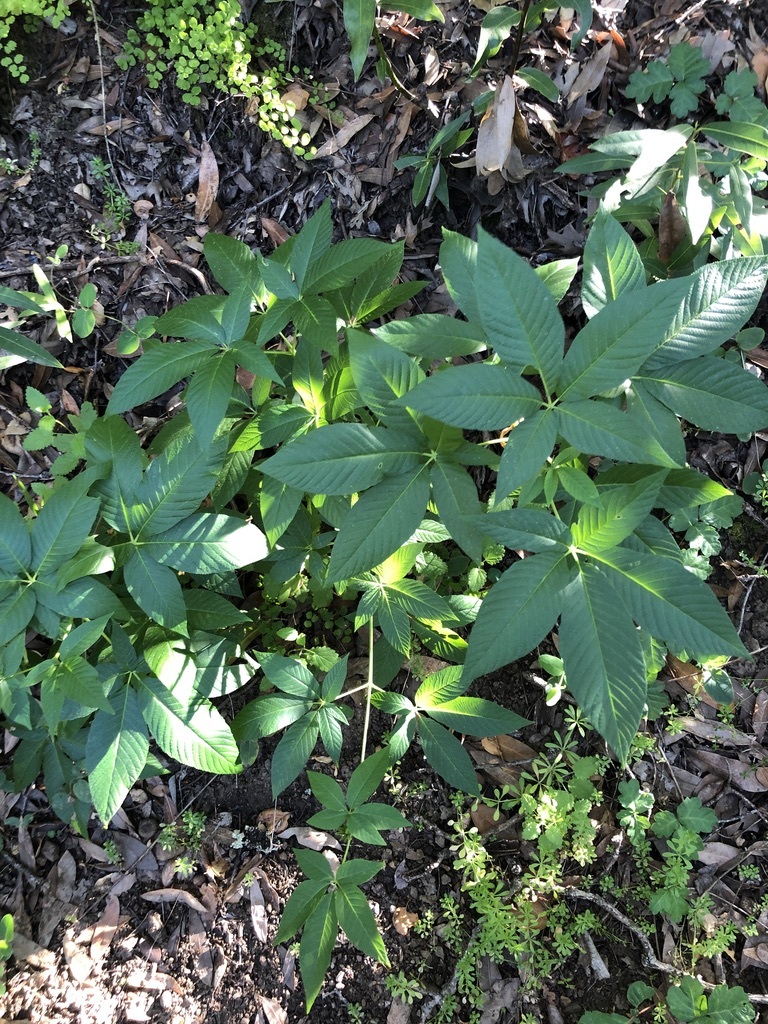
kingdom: Plantae
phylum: Tracheophyta
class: Magnoliopsida
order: Sapindales
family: Sapindaceae
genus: Aesculus
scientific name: Aesculus californica
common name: California buckeye
